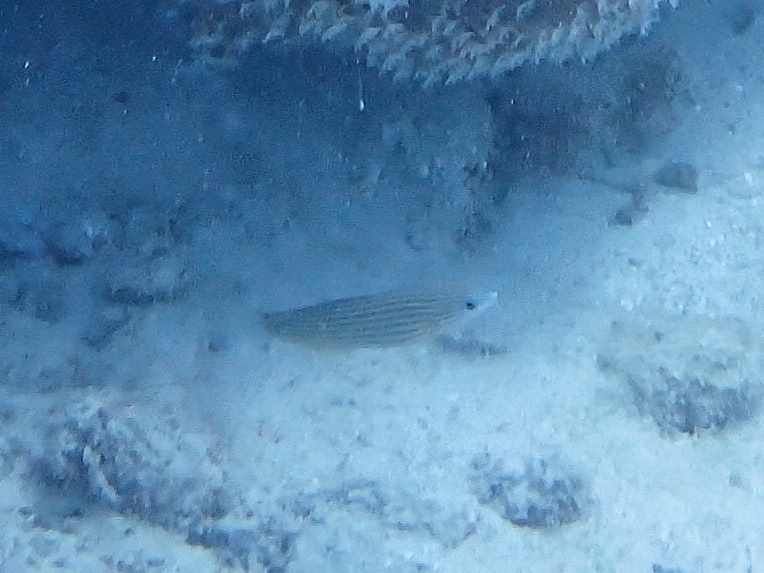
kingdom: Animalia
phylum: Chordata
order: Perciformes
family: Labridae
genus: Halichoeres
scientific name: Halichoeres melanurus
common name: Hoeven's wrasse
